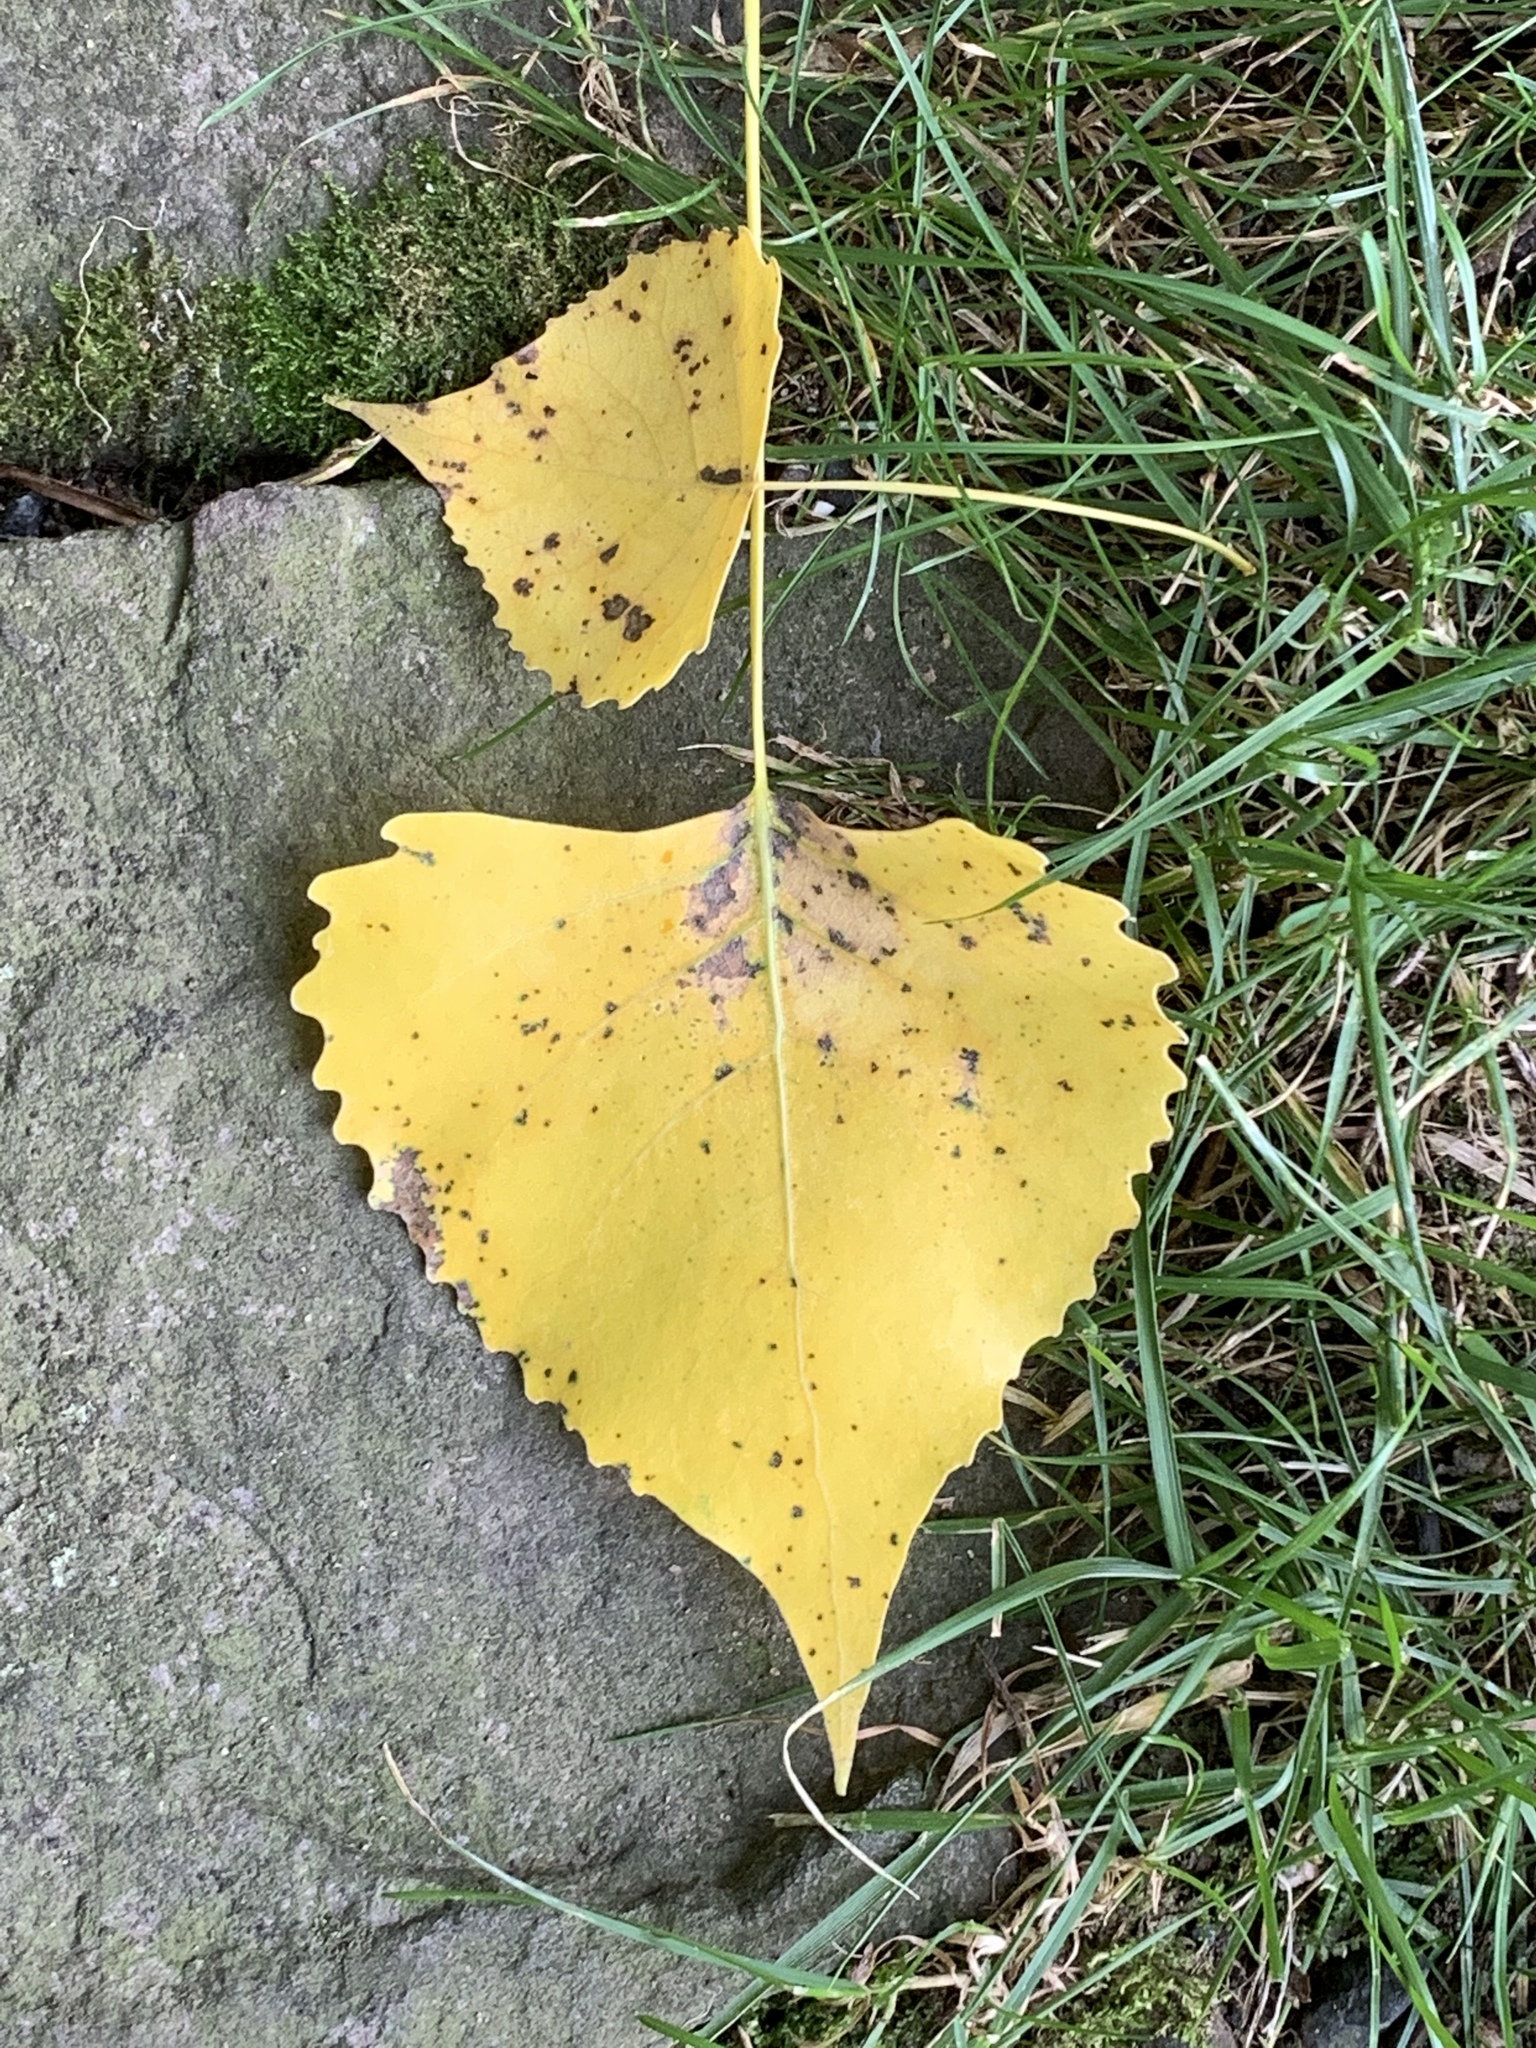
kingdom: Plantae
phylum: Tracheophyta
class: Magnoliopsida
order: Malpighiales
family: Salicaceae
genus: Populus
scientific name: Populus deltoides
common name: Eastern cottonwood
